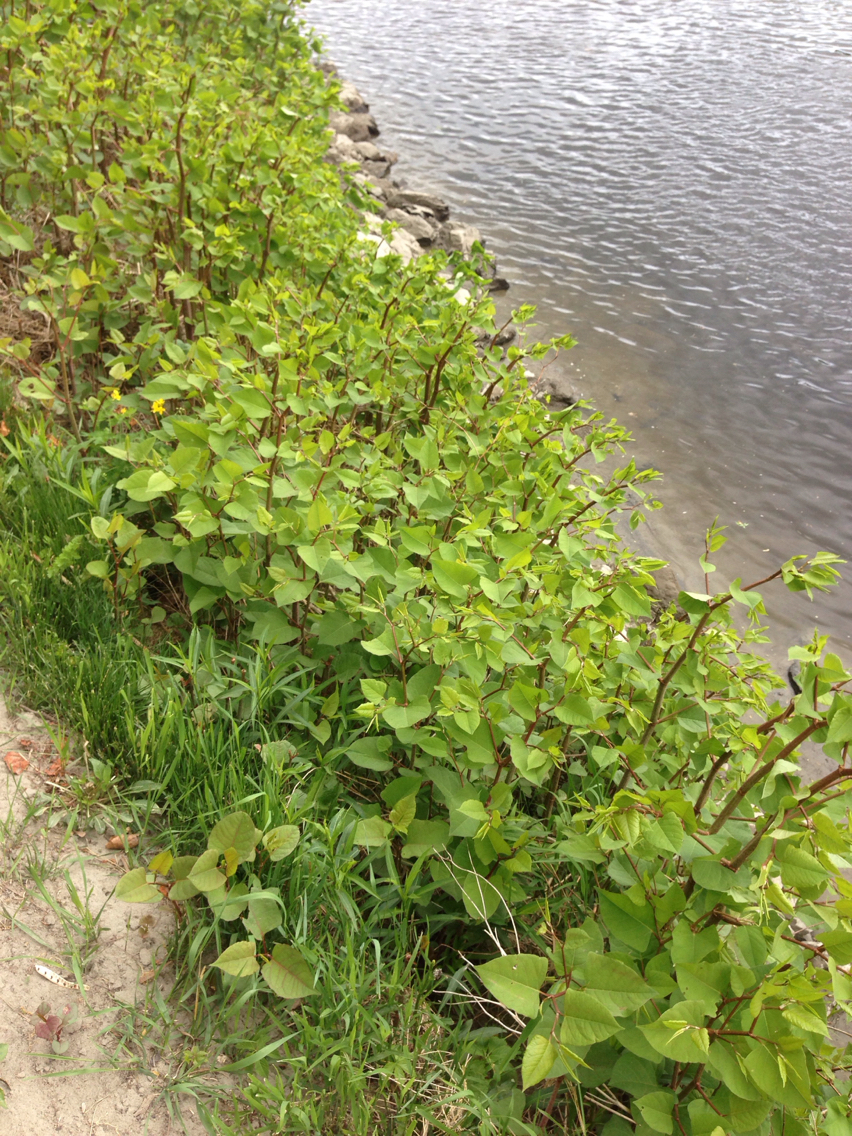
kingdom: Plantae
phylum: Tracheophyta
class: Magnoliopsida
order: Caryophyllales
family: Polygonaceae
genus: Reynoutria
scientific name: Reynoutria japonica
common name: Japanese knotweed
